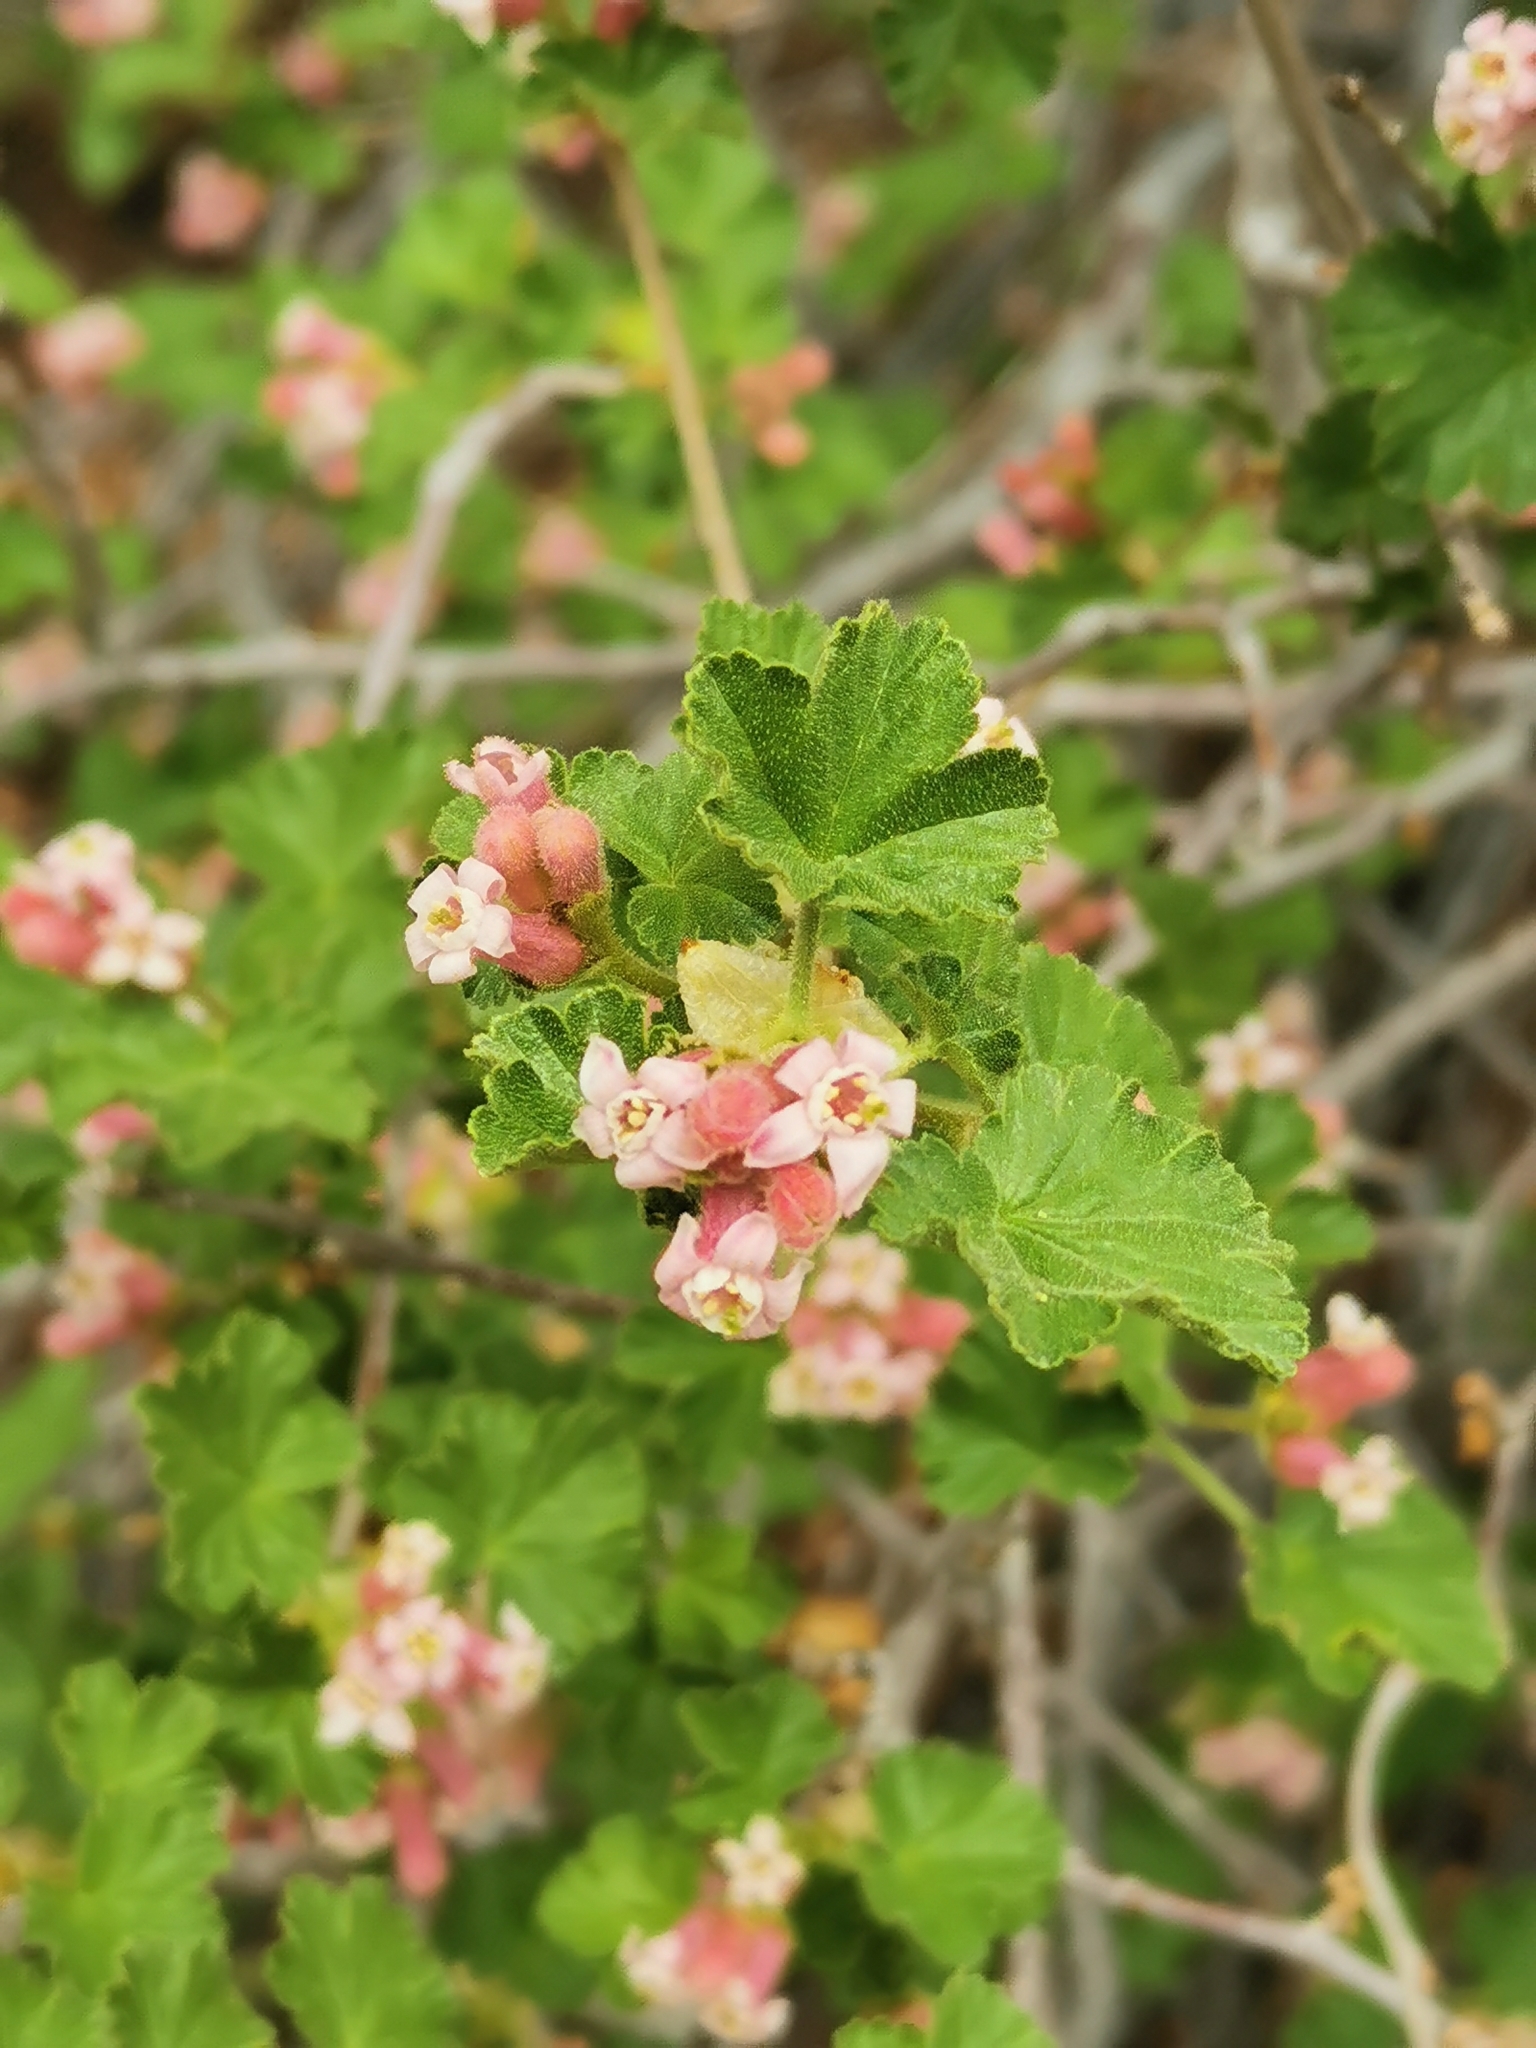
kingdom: Plantae
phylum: Tracheophyta
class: Magnoliopsida
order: Saxifragales
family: Grossulariaceae
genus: Ribes
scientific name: Ribes cereum
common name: Wax currant
